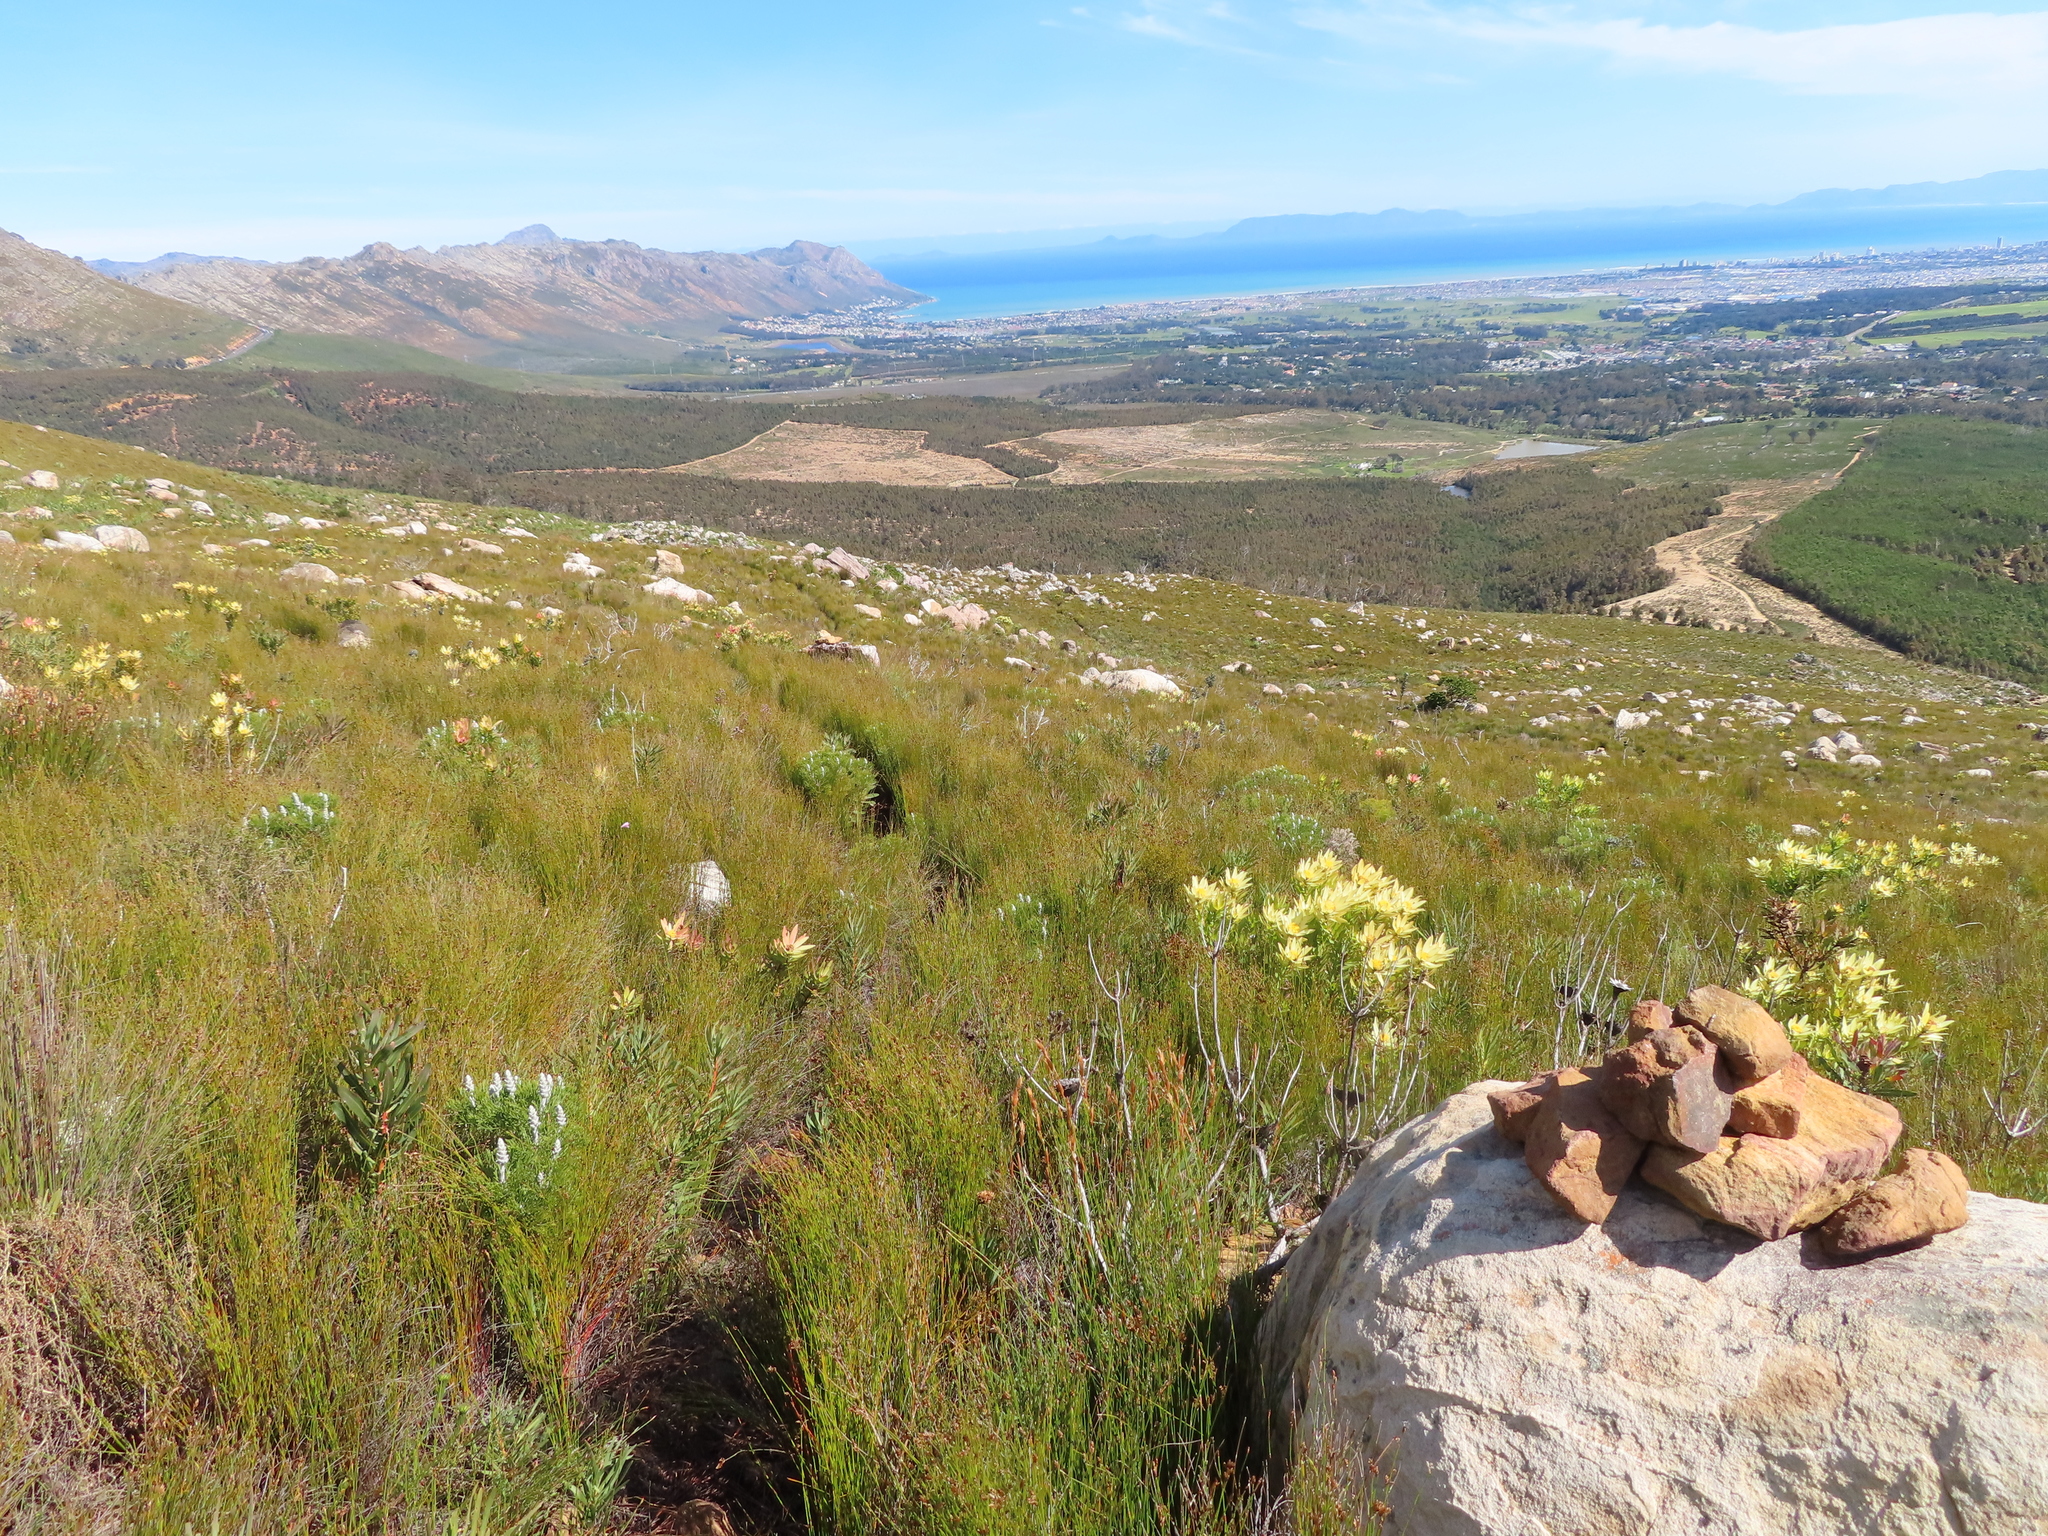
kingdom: Plantae
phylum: Tracheophyta
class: Magnoliopsida
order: Proteales
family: Proteaceae
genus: Leucadendron
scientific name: Leucadendron sessile
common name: Western sunbush
